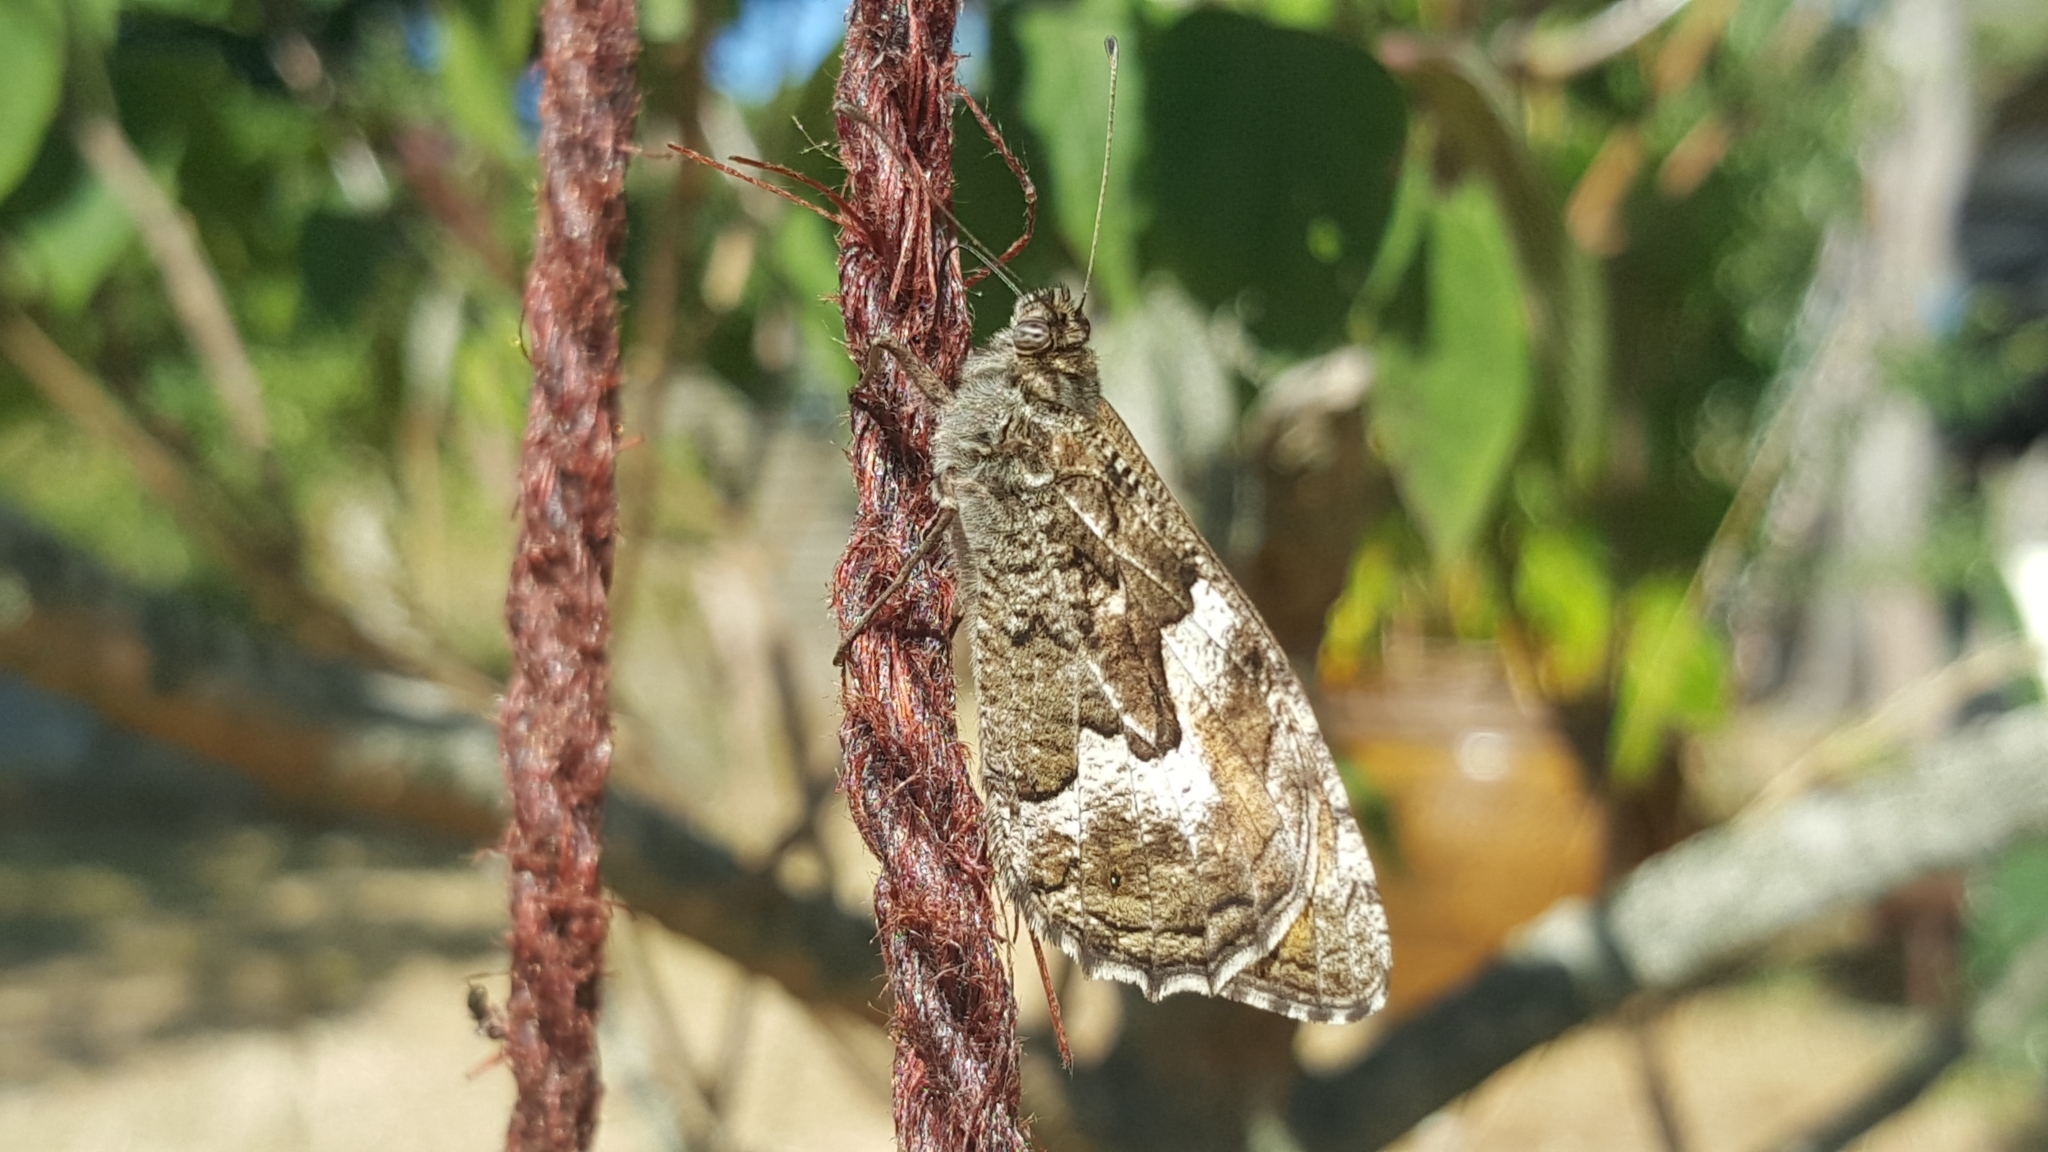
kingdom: Animalia
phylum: Arthropoda
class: Insecta
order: Lepidoptera
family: Nymphalidae
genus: Hipparchia
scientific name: Hipparchia semele
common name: Grayling
